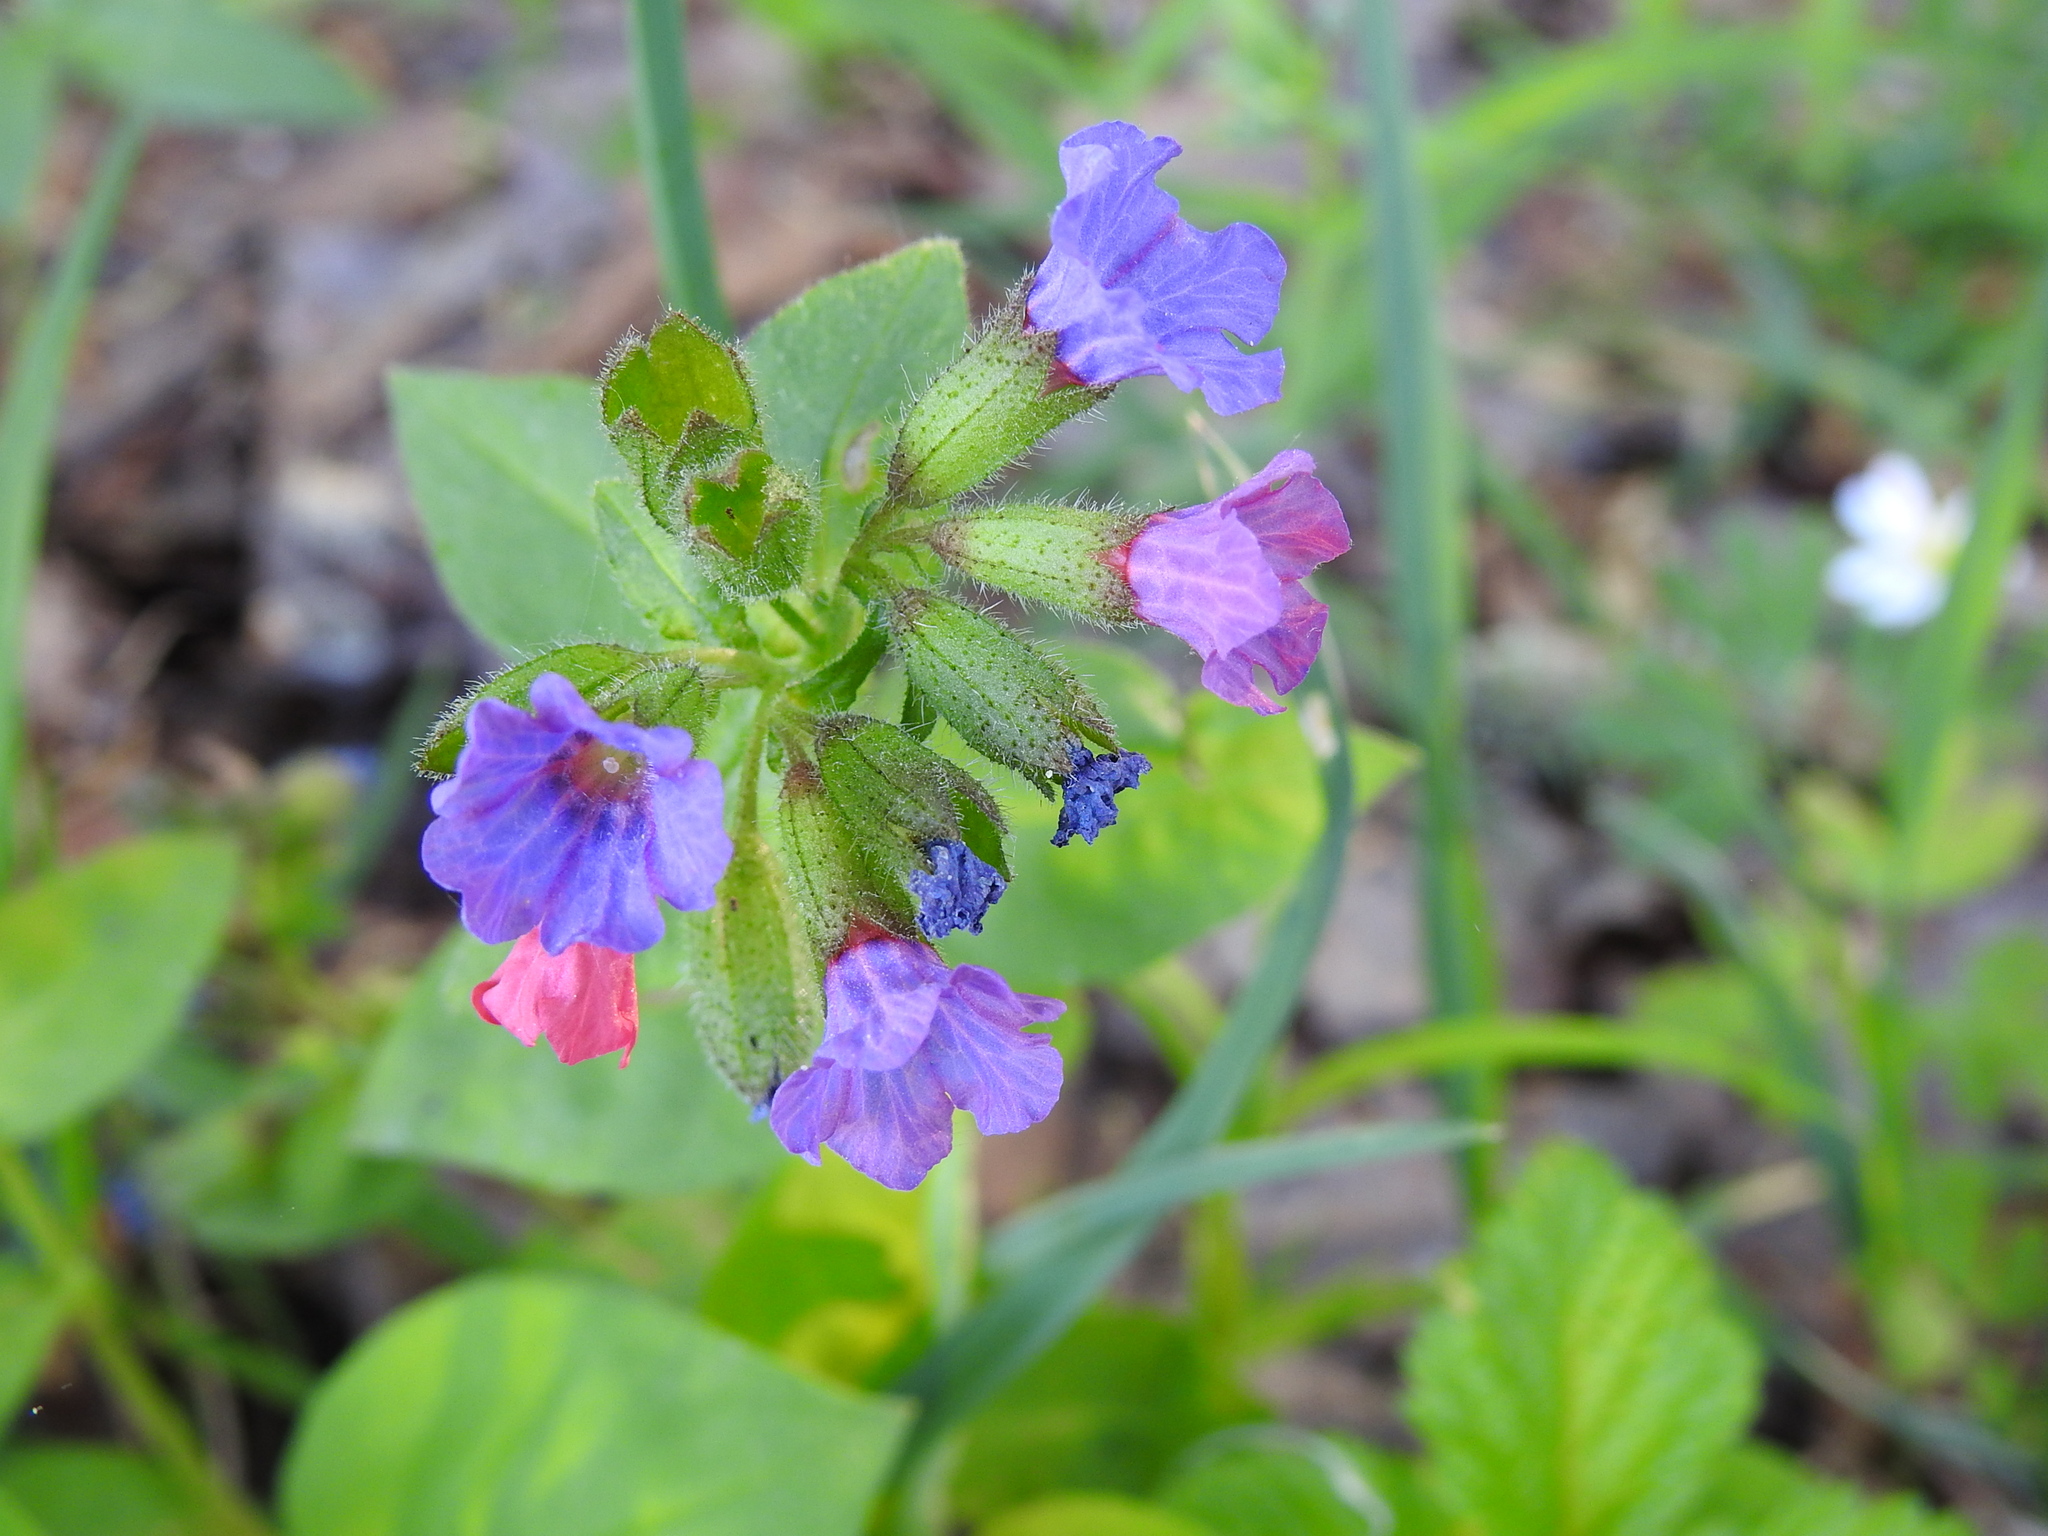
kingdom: Plantae
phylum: Tracheophyta
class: Magnoliopsida
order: Boraginales
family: Boraginaceae
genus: Pulmonaria
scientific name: Pulmonaria obscura
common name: Suffolk lungwort
